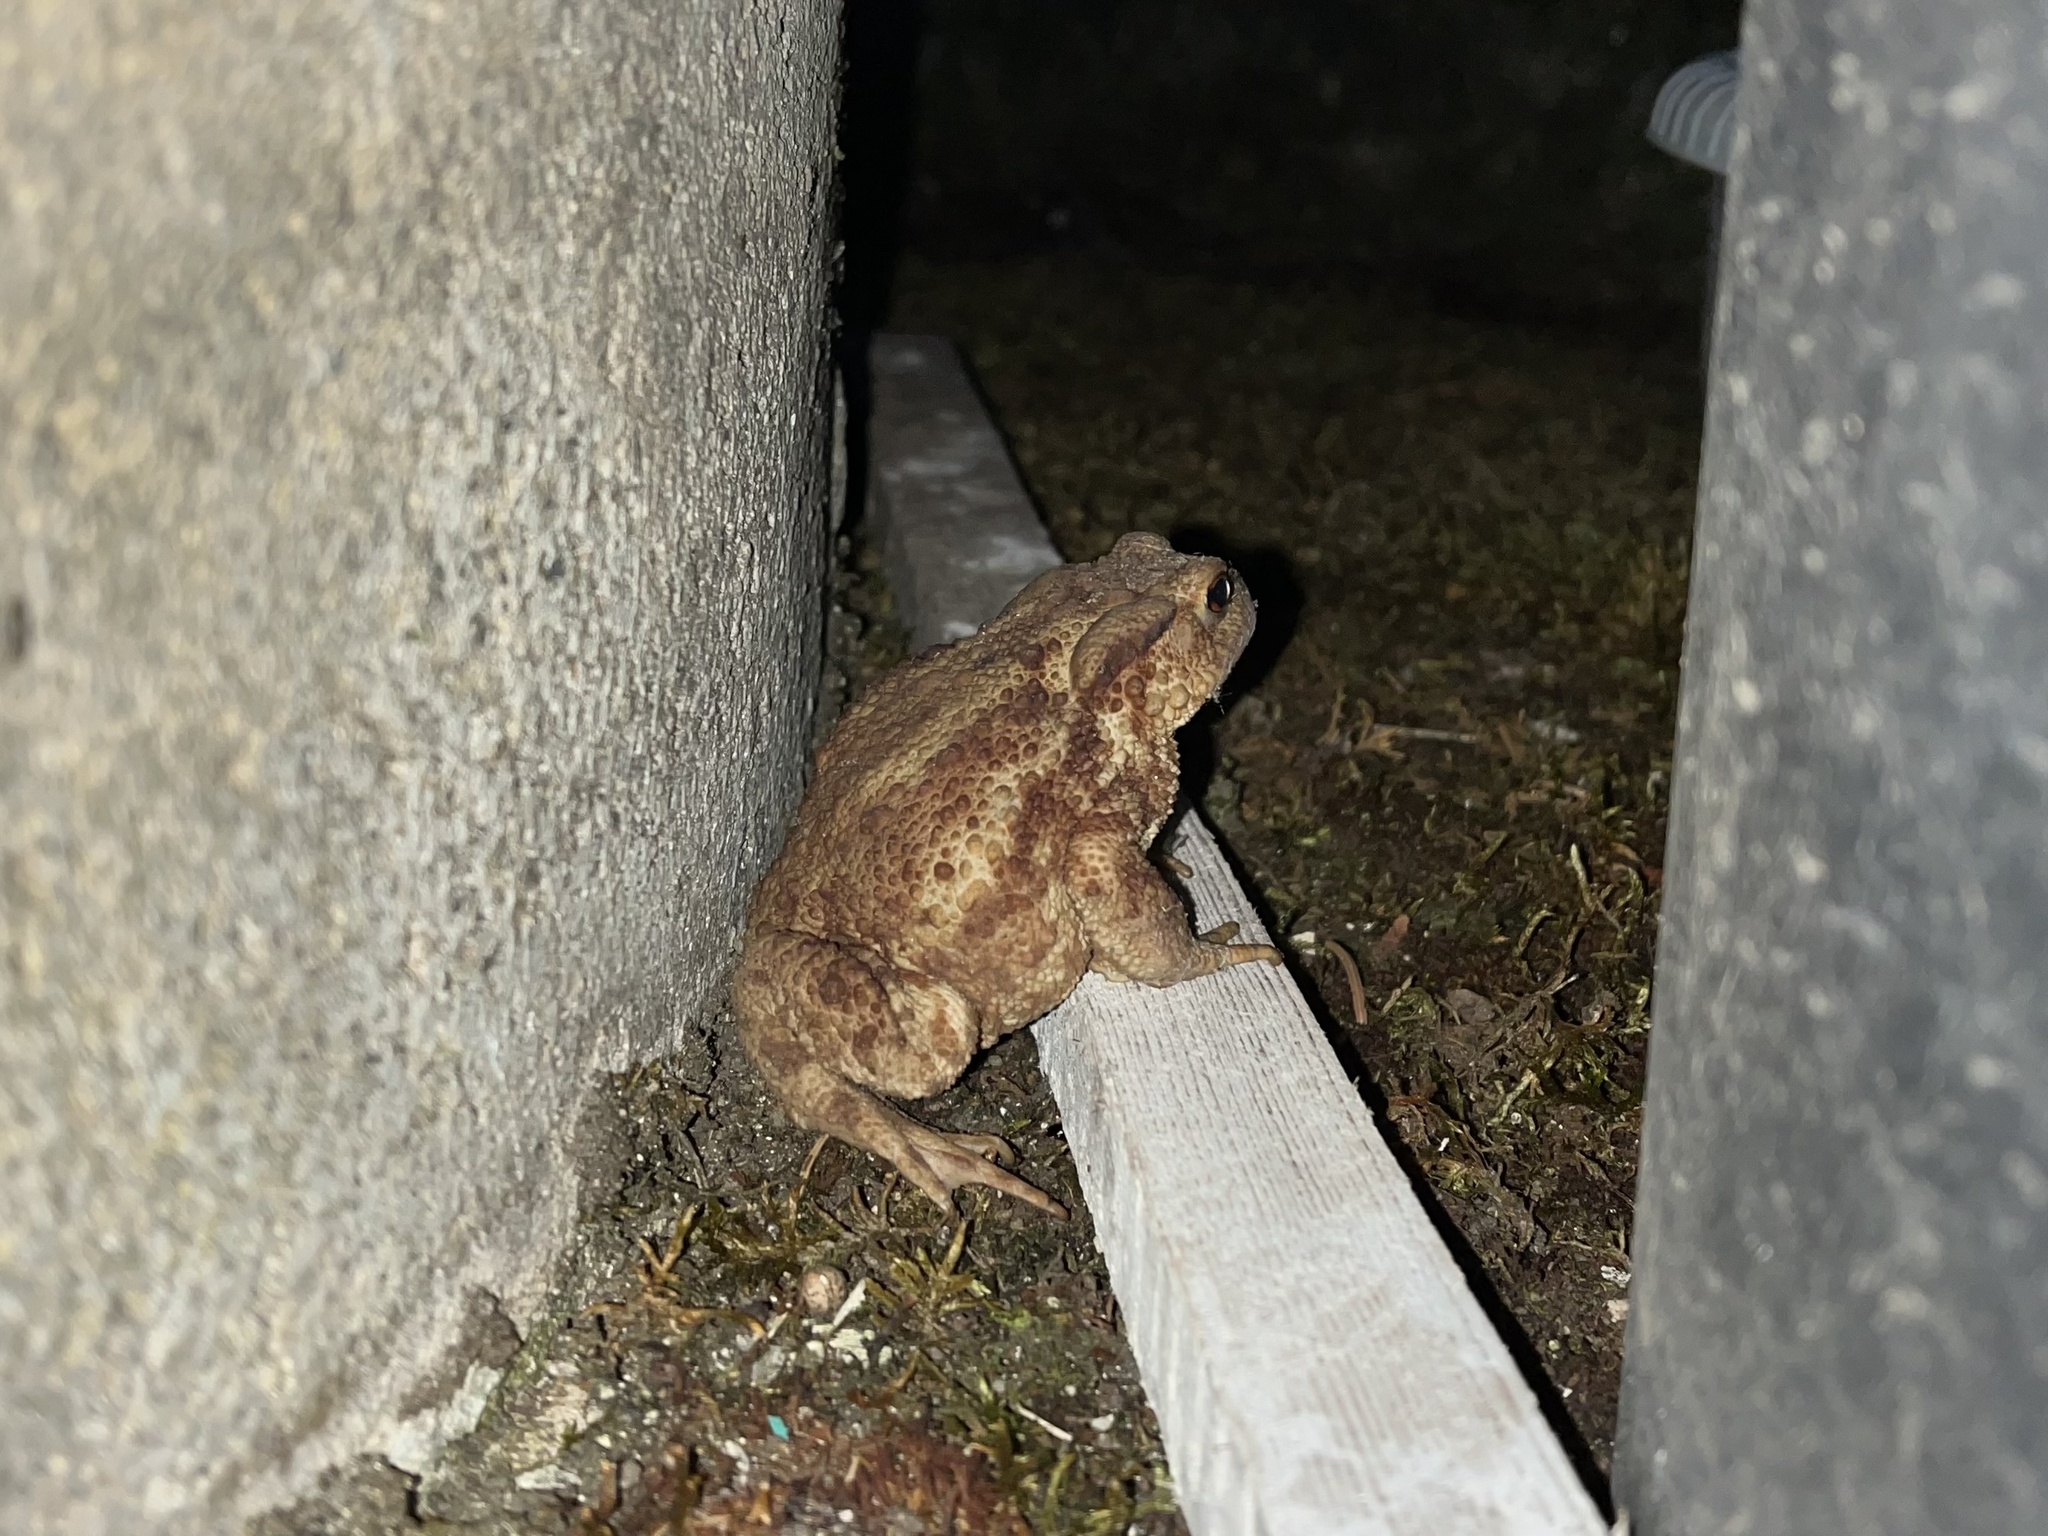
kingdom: Animalia
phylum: Chordata
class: Amphibia
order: Anura
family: Bufonidae
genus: Bufo
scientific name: Bufo bufo
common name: Common toad
